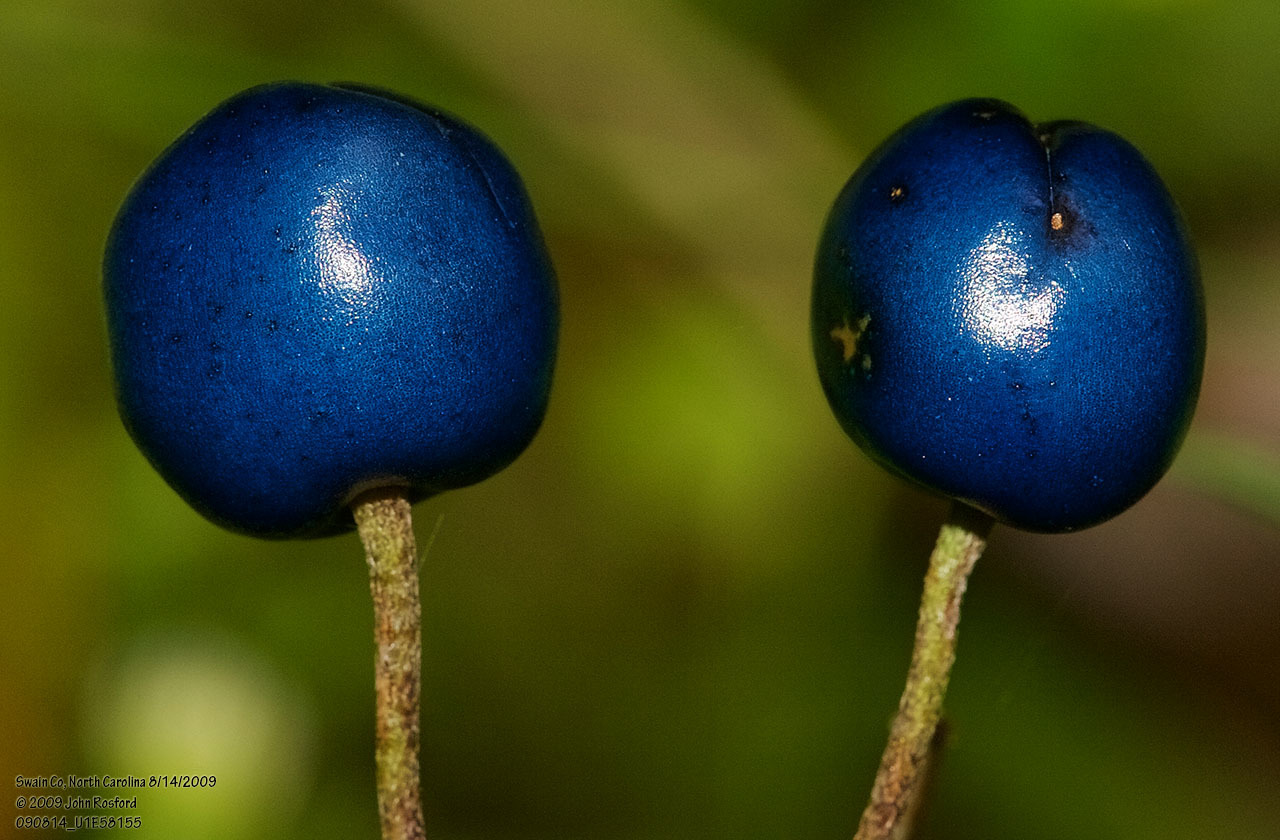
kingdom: Plantae
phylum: Tracheophyta
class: Liliopsida
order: Liliales
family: Liliaceae
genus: Clintonia
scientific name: Clintonia borealis
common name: Yellow clintonia
